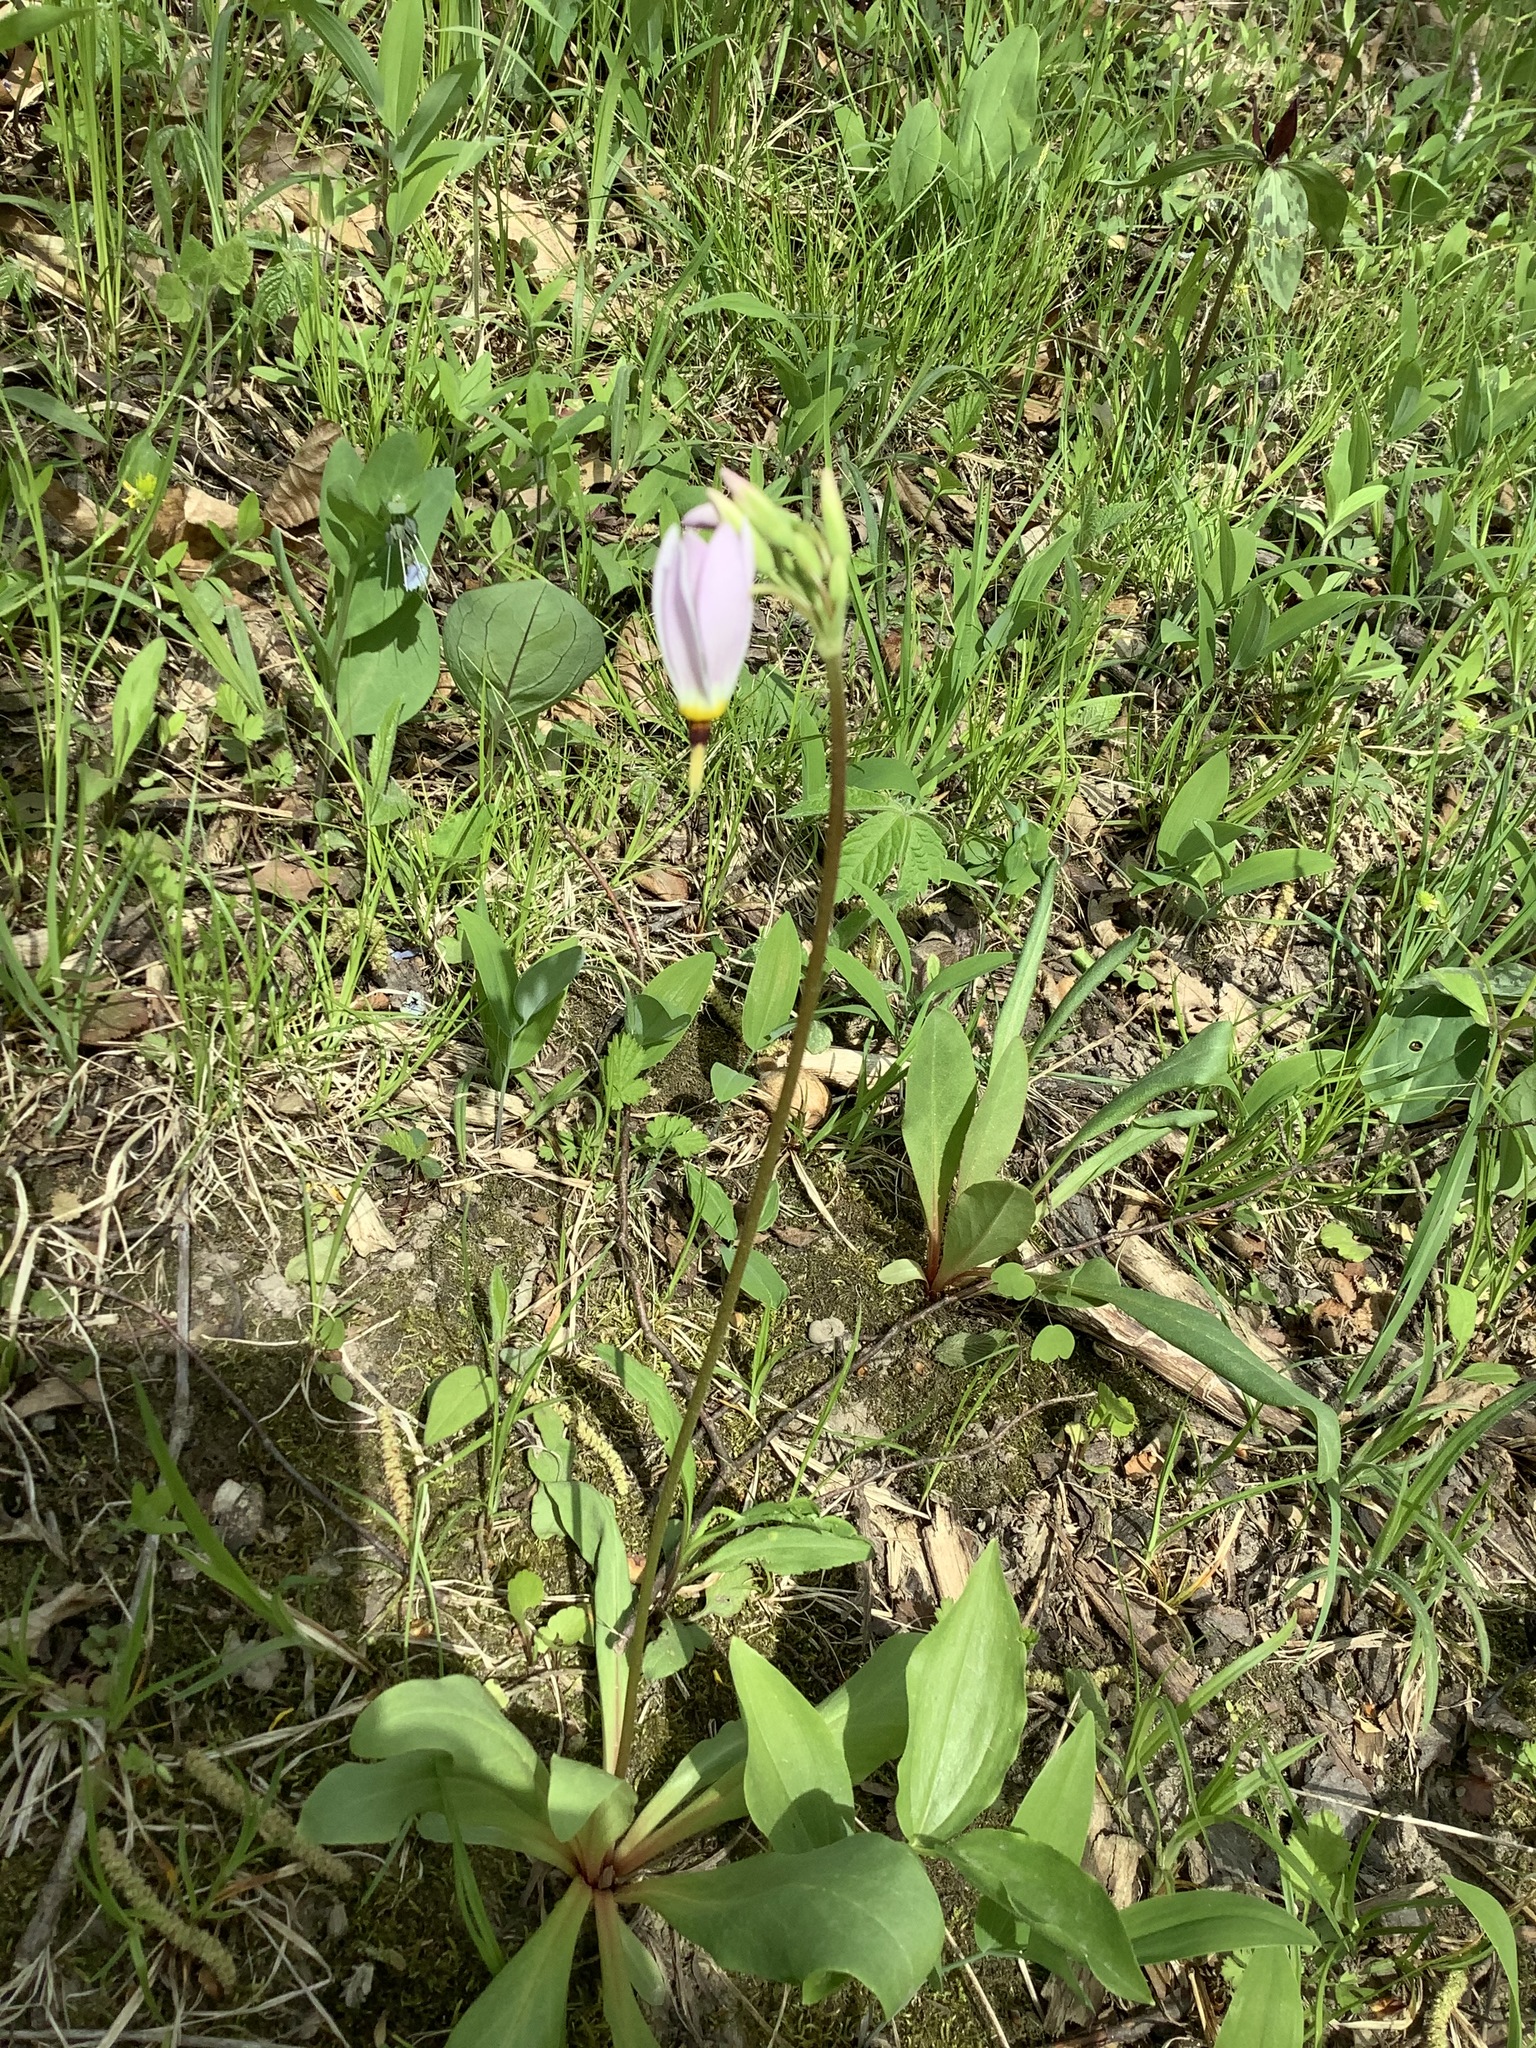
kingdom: Plantae
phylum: Tracheophyta
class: Magnoliopsida
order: Ericales
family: Primulaceae
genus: Dodecatheon
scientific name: Dodecatheon meadia
